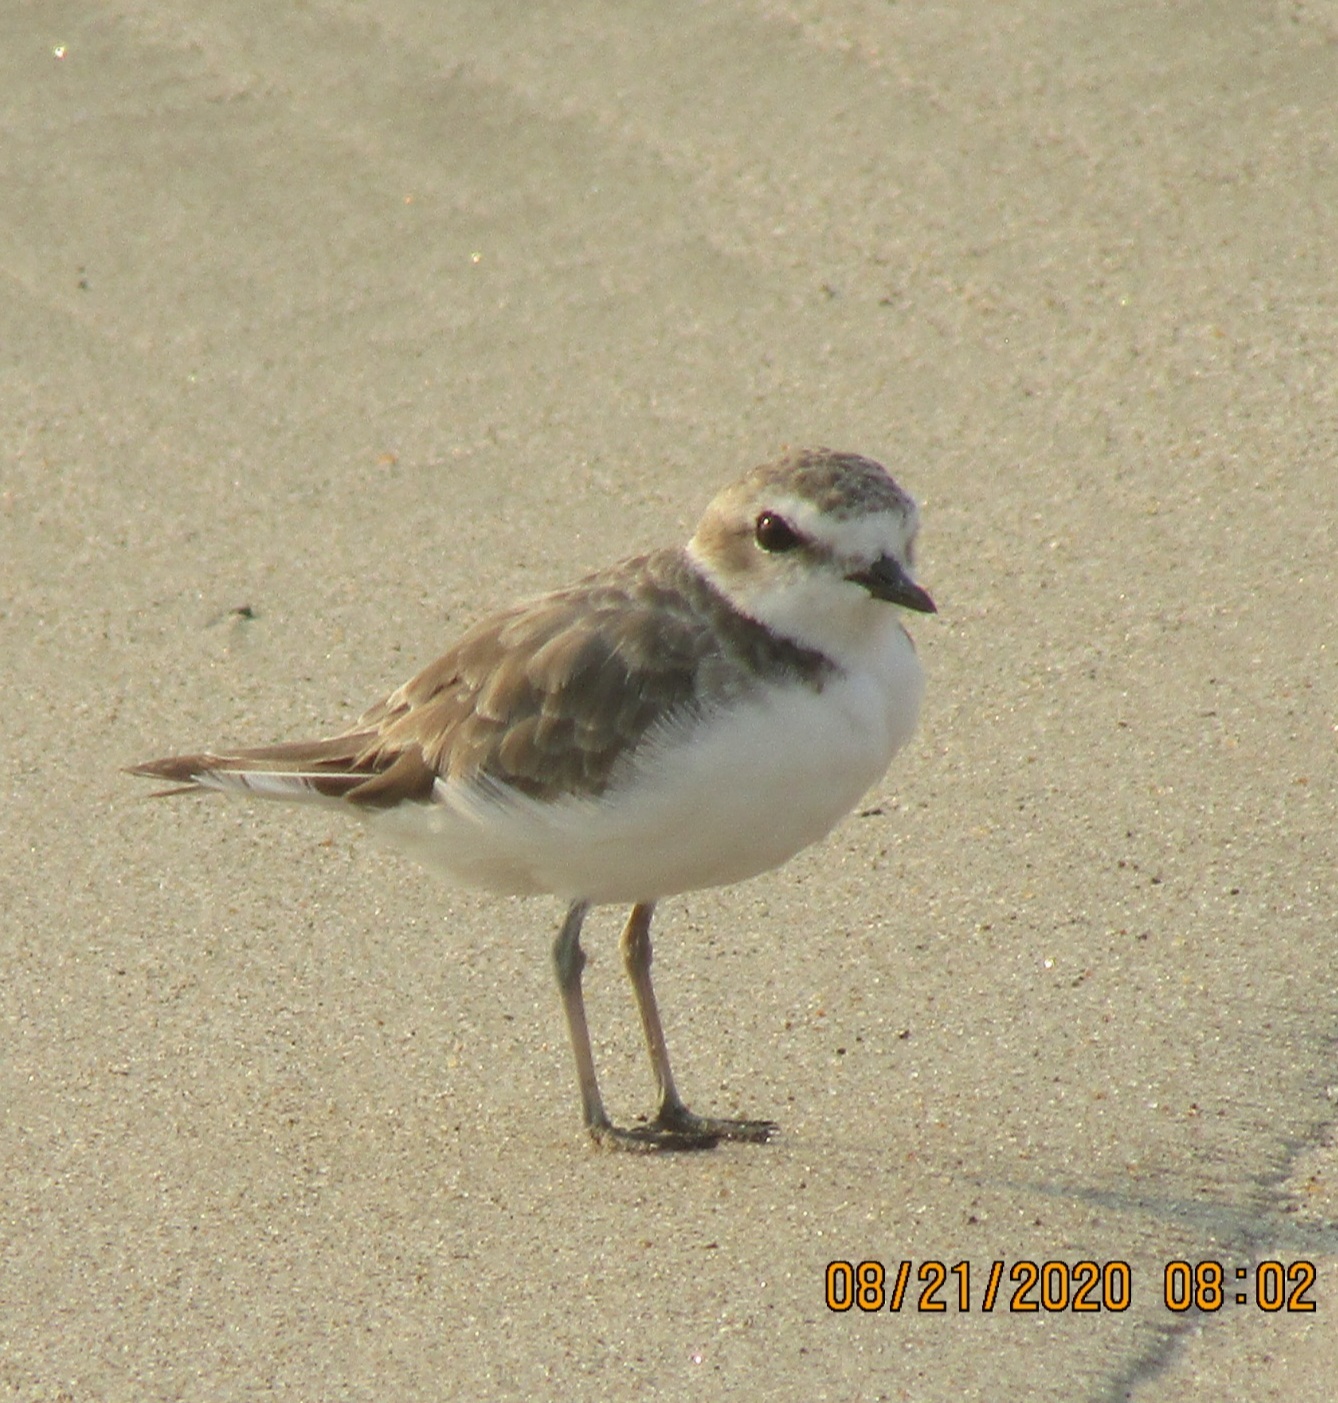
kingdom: Animalia
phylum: Chordata
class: Aves
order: Charadriiformes
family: Charadriidae
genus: Anarhynchus
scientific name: Anarhynchus
